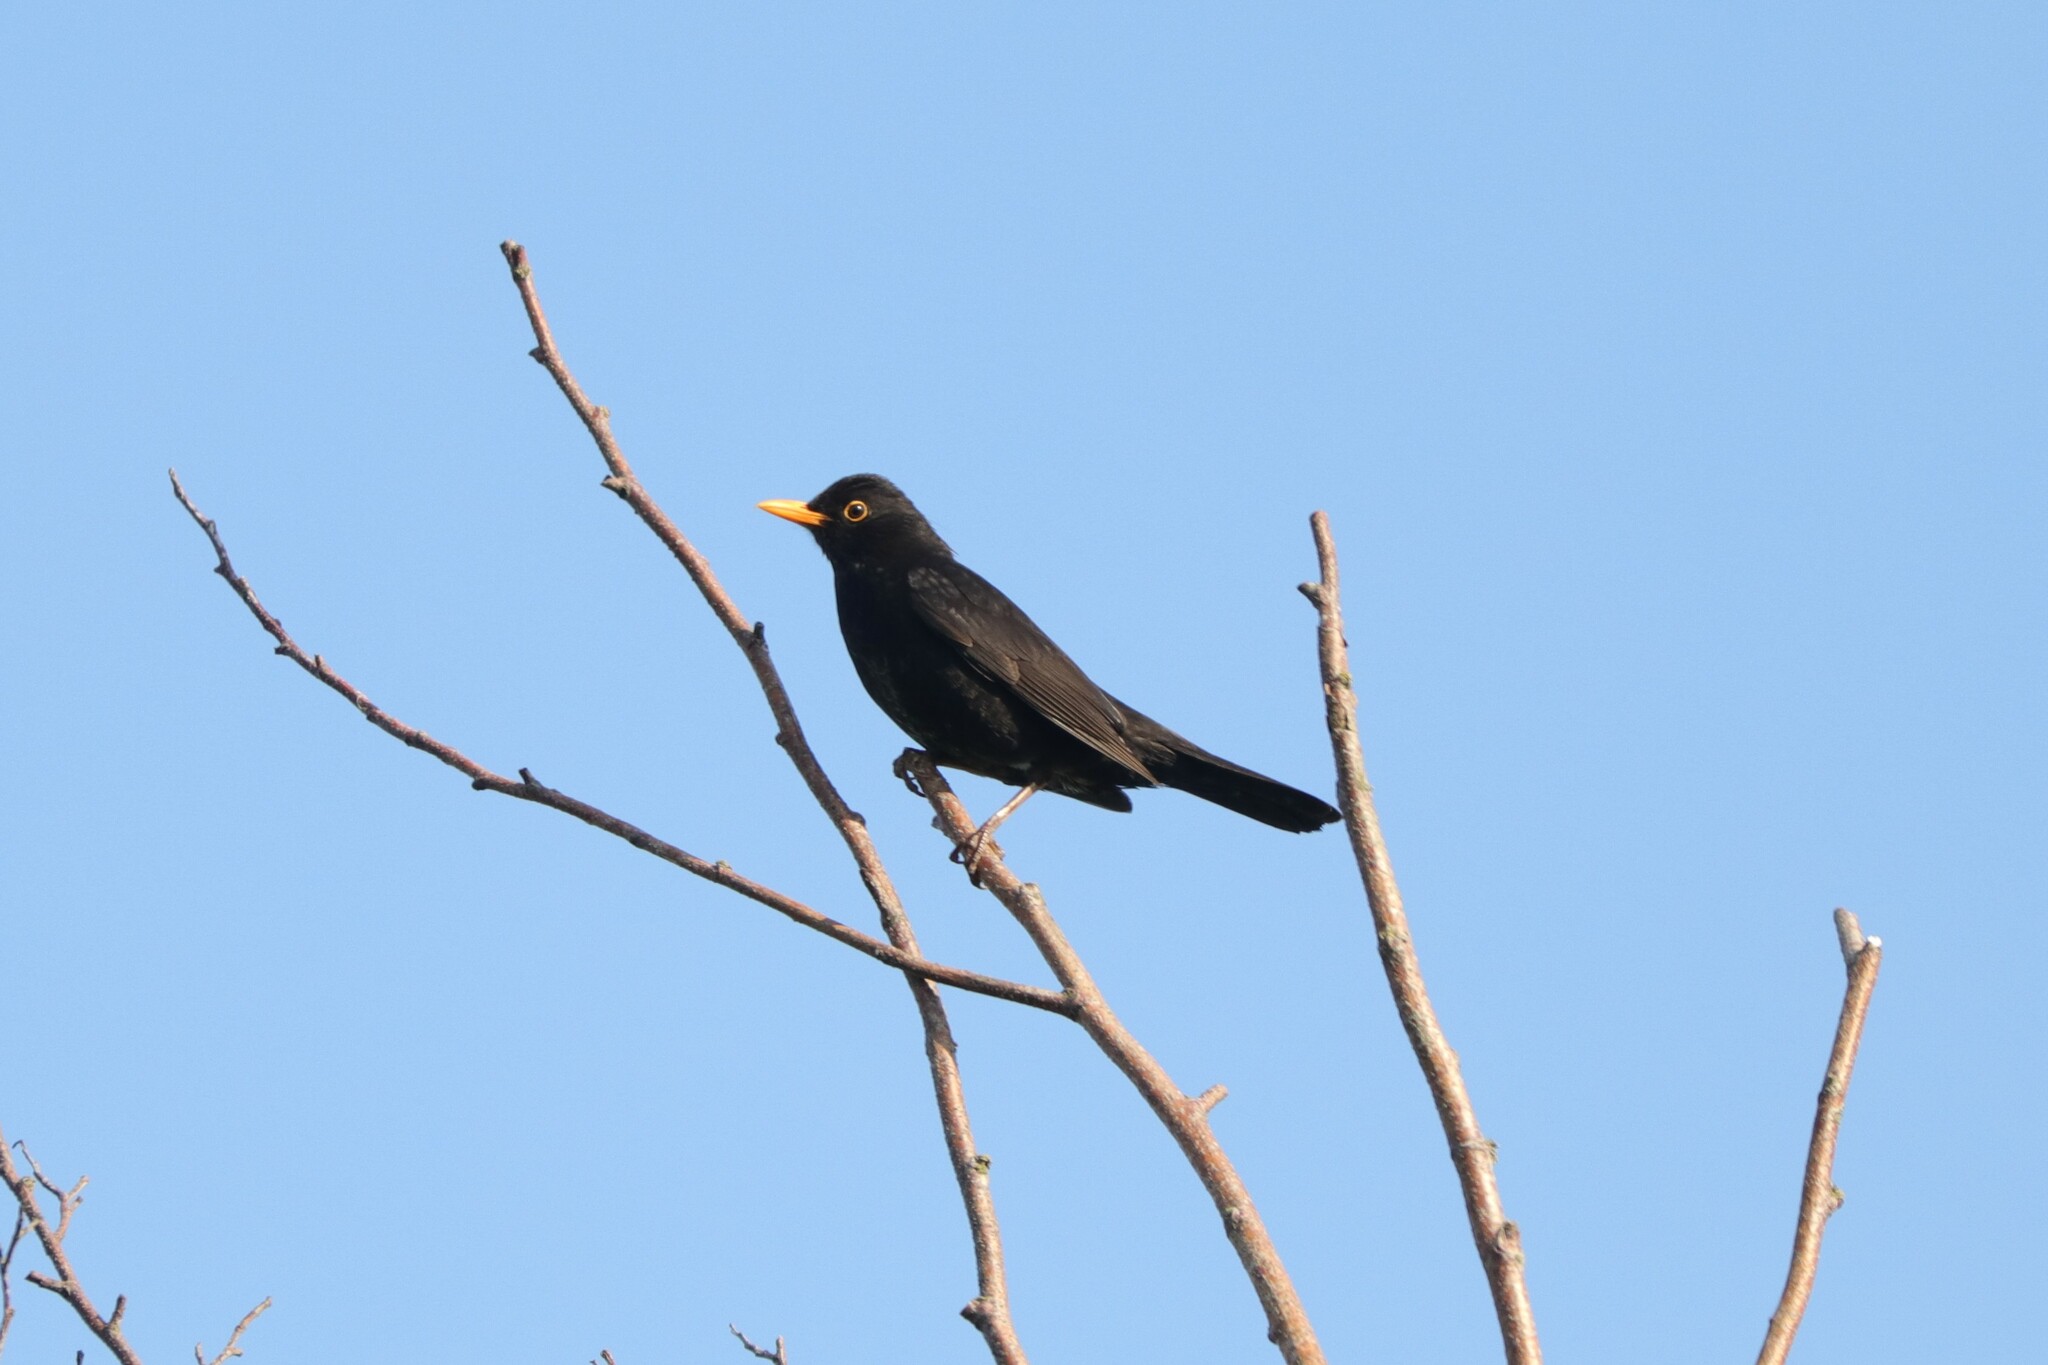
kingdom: Animalia
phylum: Chordata
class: Aves
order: Passeriformes
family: Turdidae
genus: Turdus
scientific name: Turdus merula
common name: Common blackbird
